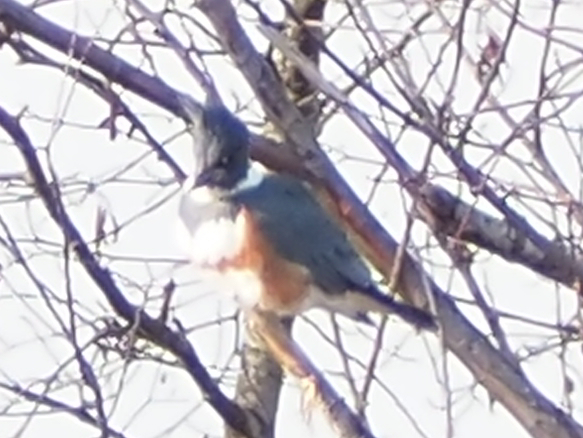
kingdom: Animalia
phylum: Chordata
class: Aves
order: Coraciiformes
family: Alcedinidae
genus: Megaceryle
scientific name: Megaceryle alcyon
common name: Belted kingfisher
